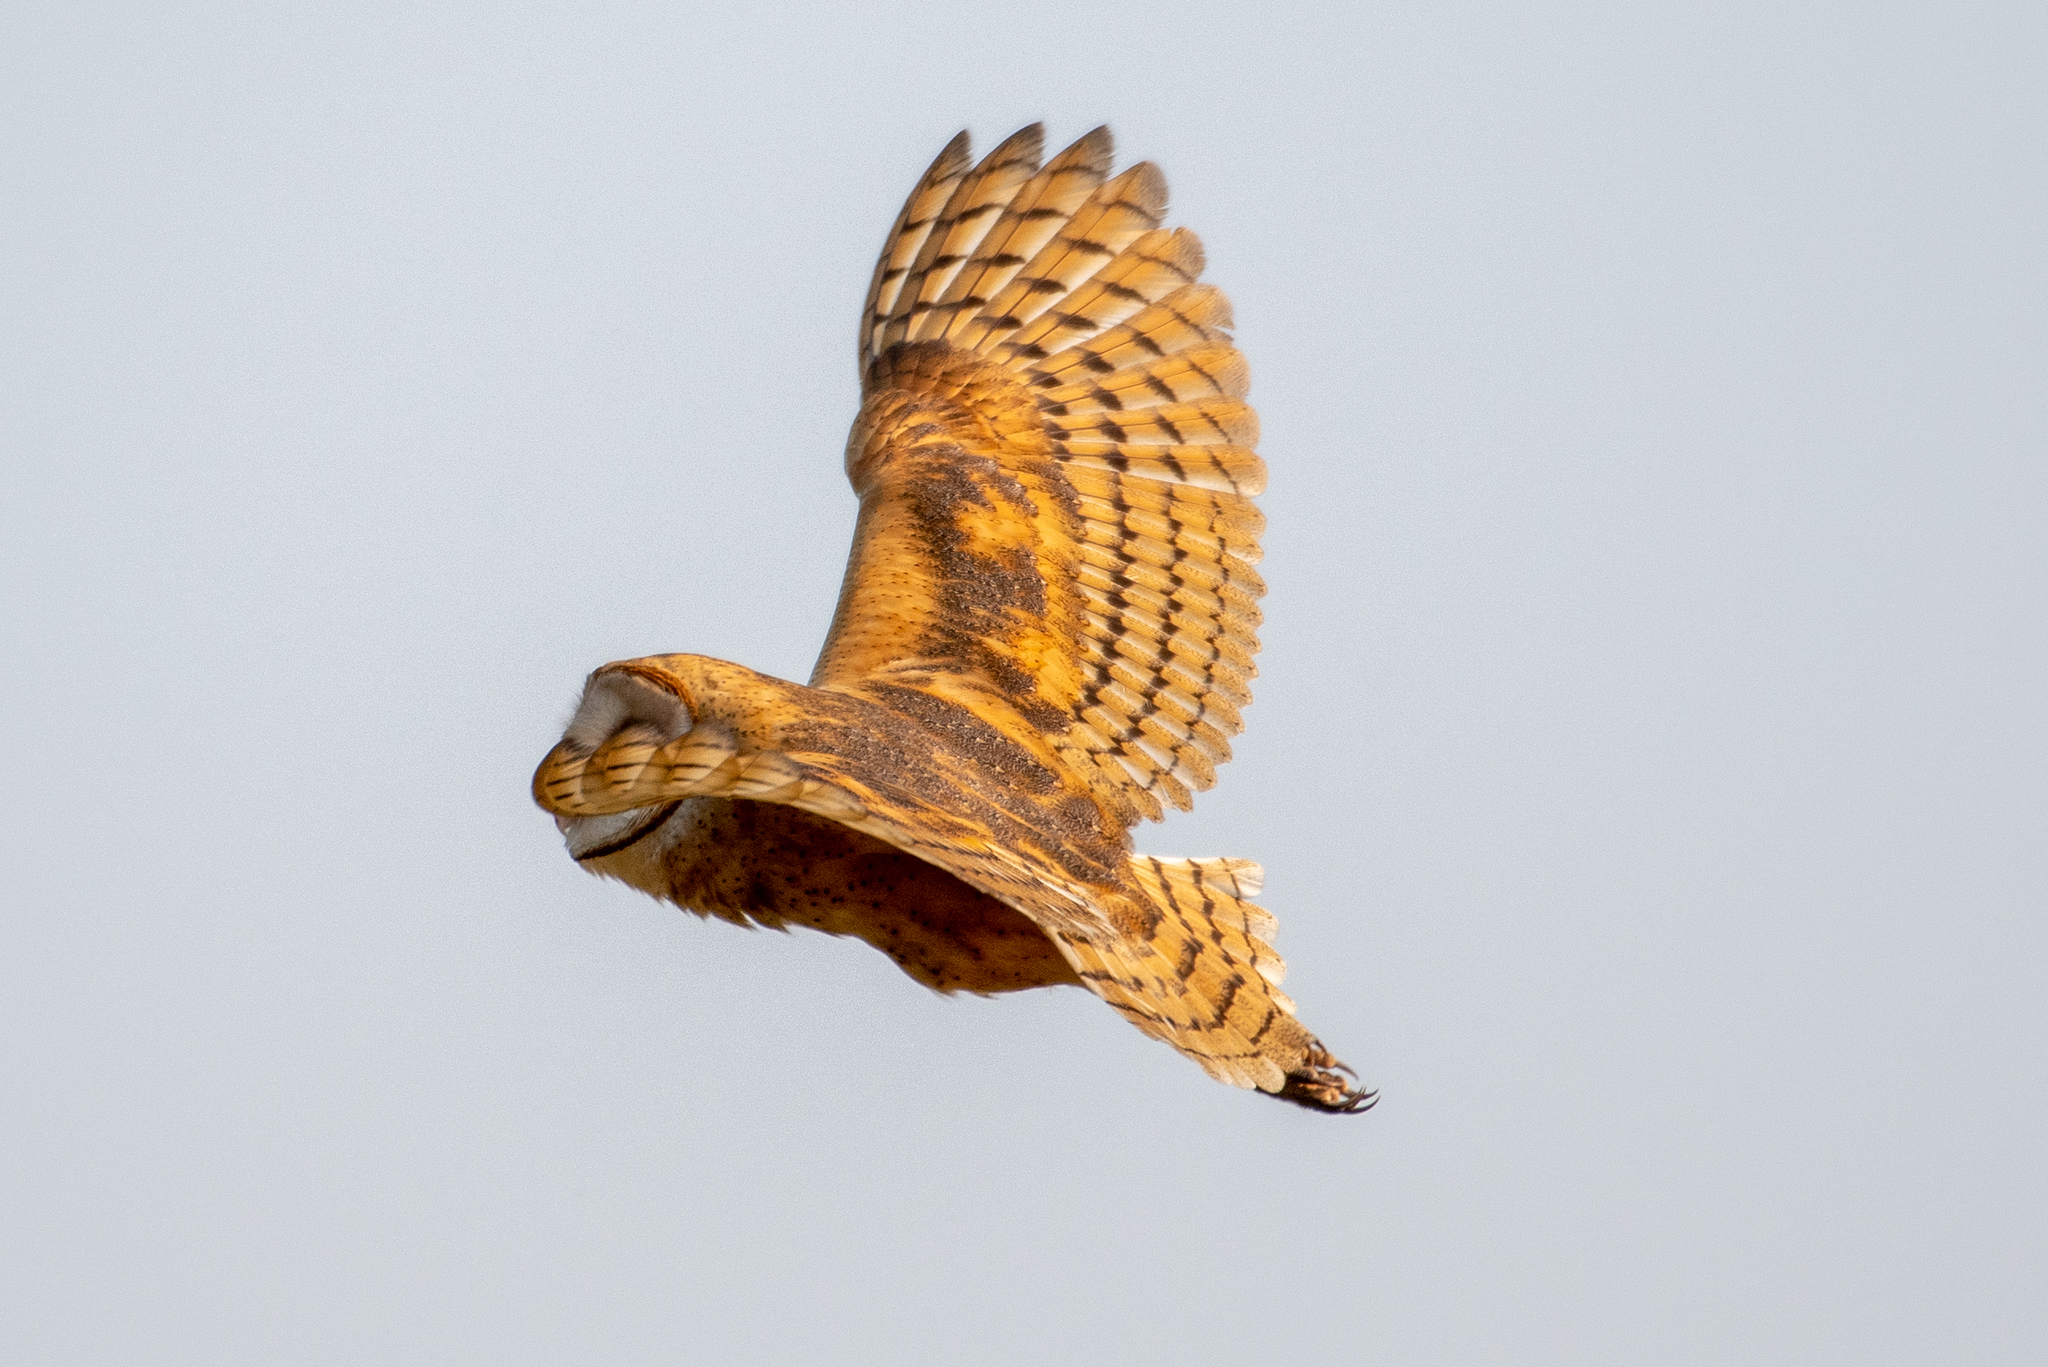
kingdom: Animalia
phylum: Chordata
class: Aves
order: Strigiformes
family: Tytonidae
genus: Tyto
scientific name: Tyto alba
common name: Barn owl
